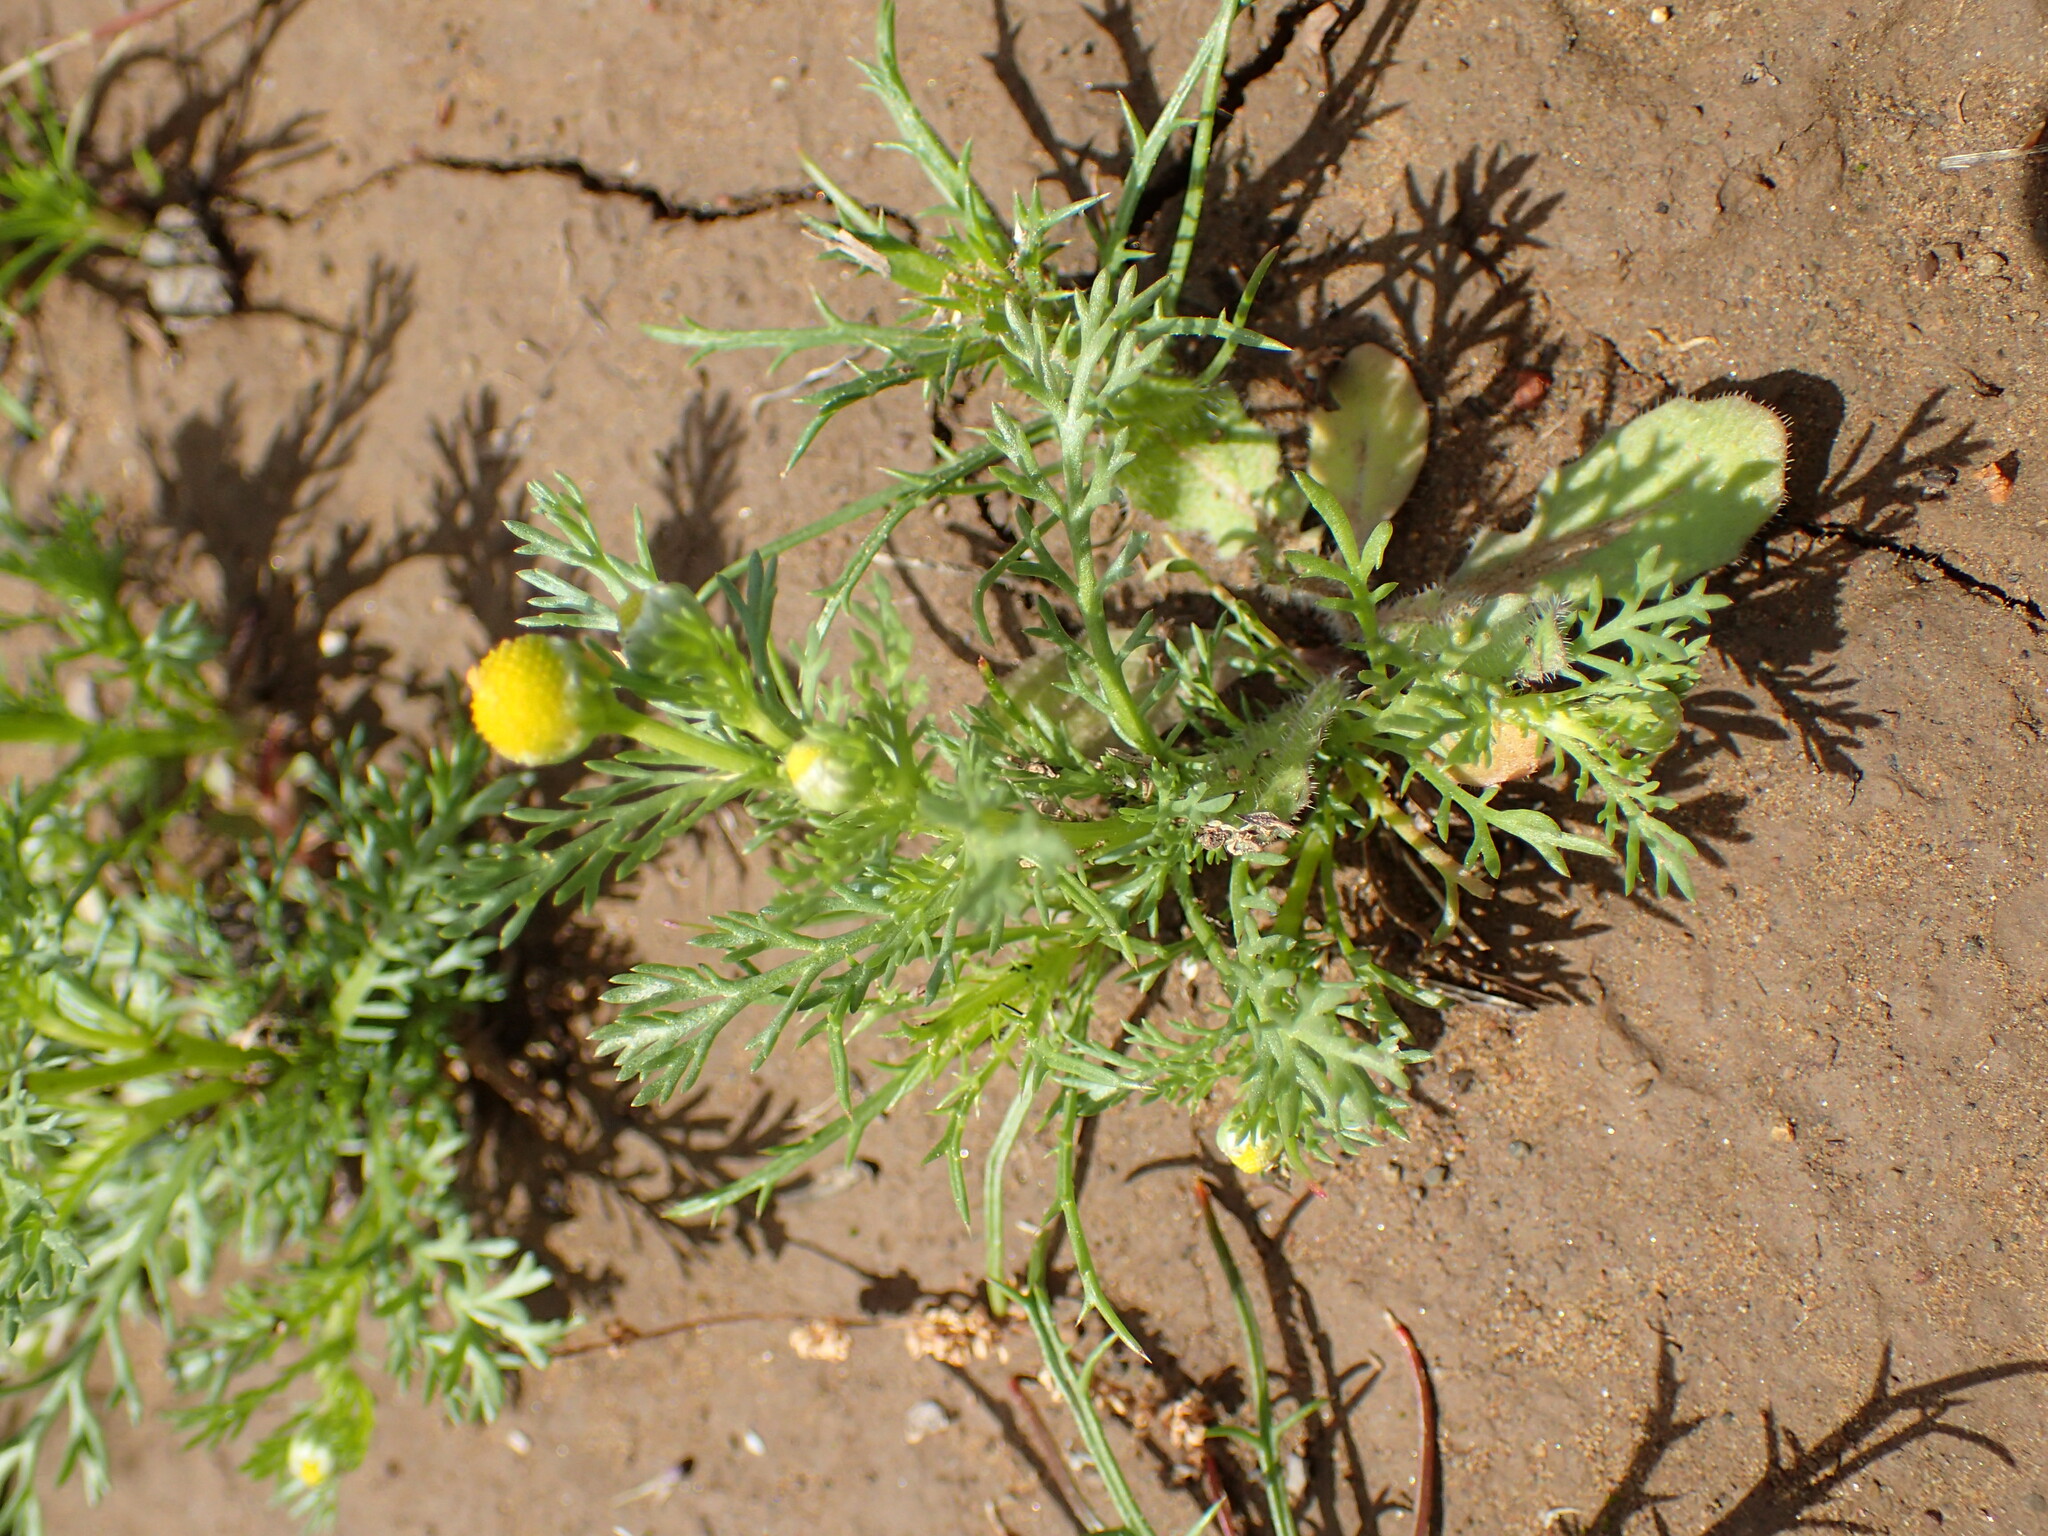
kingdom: Plantae
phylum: Tracheophyta
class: Magnoliopsida
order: Asterales
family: Asteraceae
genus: Matricaria
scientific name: Matricaria discoidea
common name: Disc mayweed
